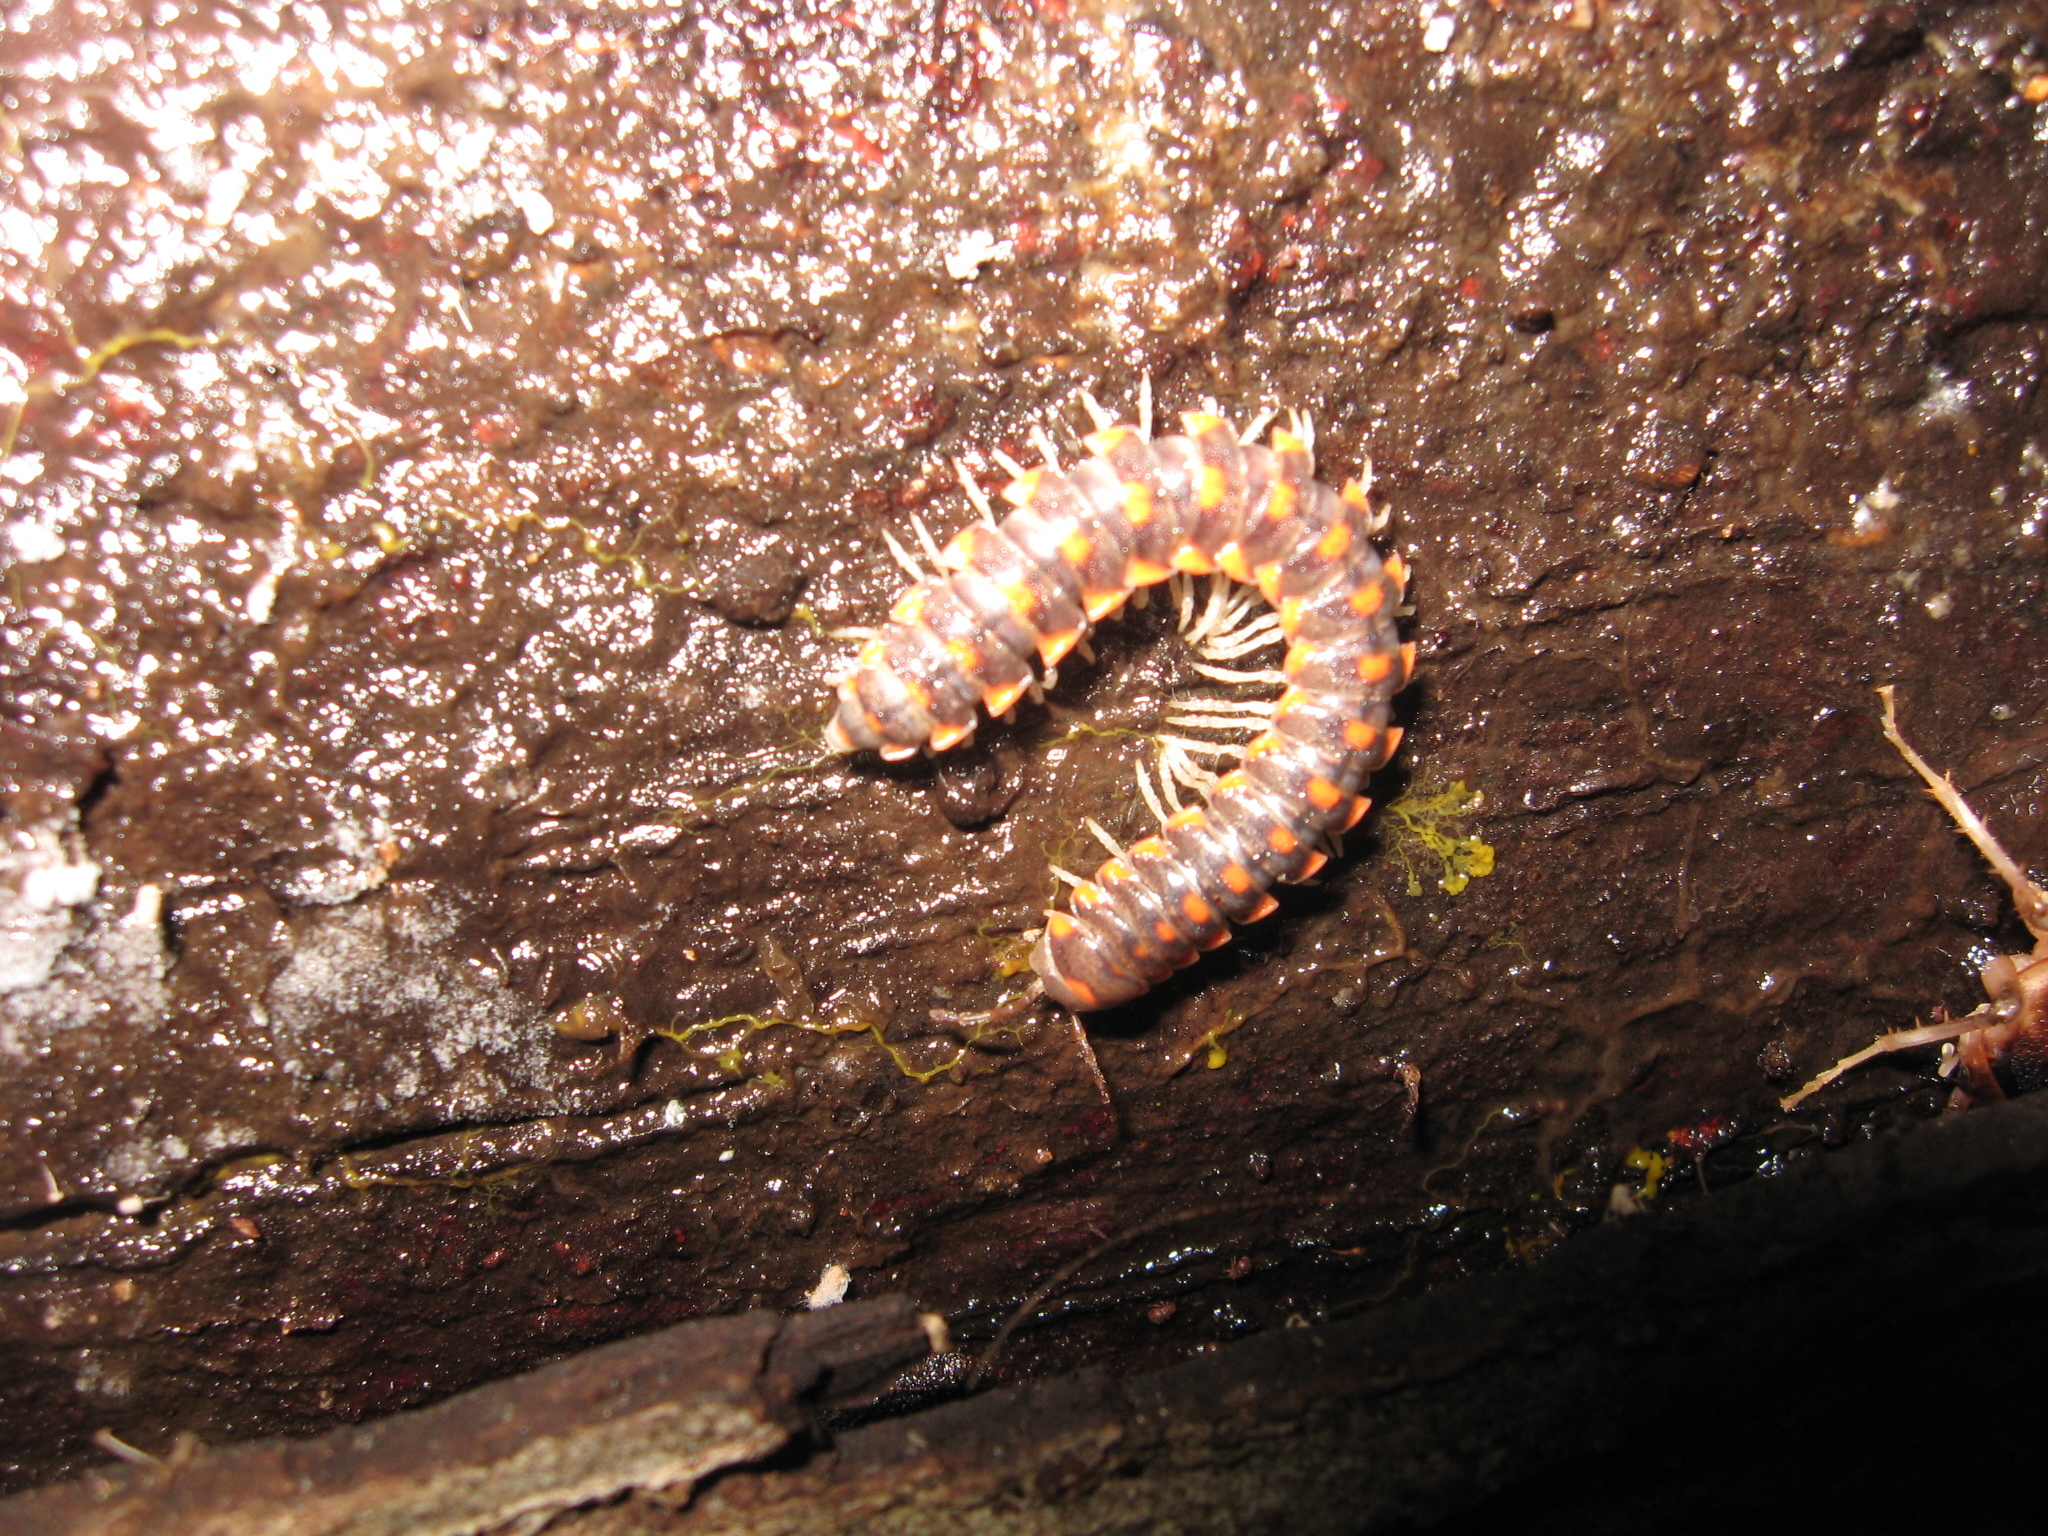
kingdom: Animalia
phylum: Arthropoda
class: Diplopoda
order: Polydesmida
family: Xystodesmidae
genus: Euryurus
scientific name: Euryurus leachii
